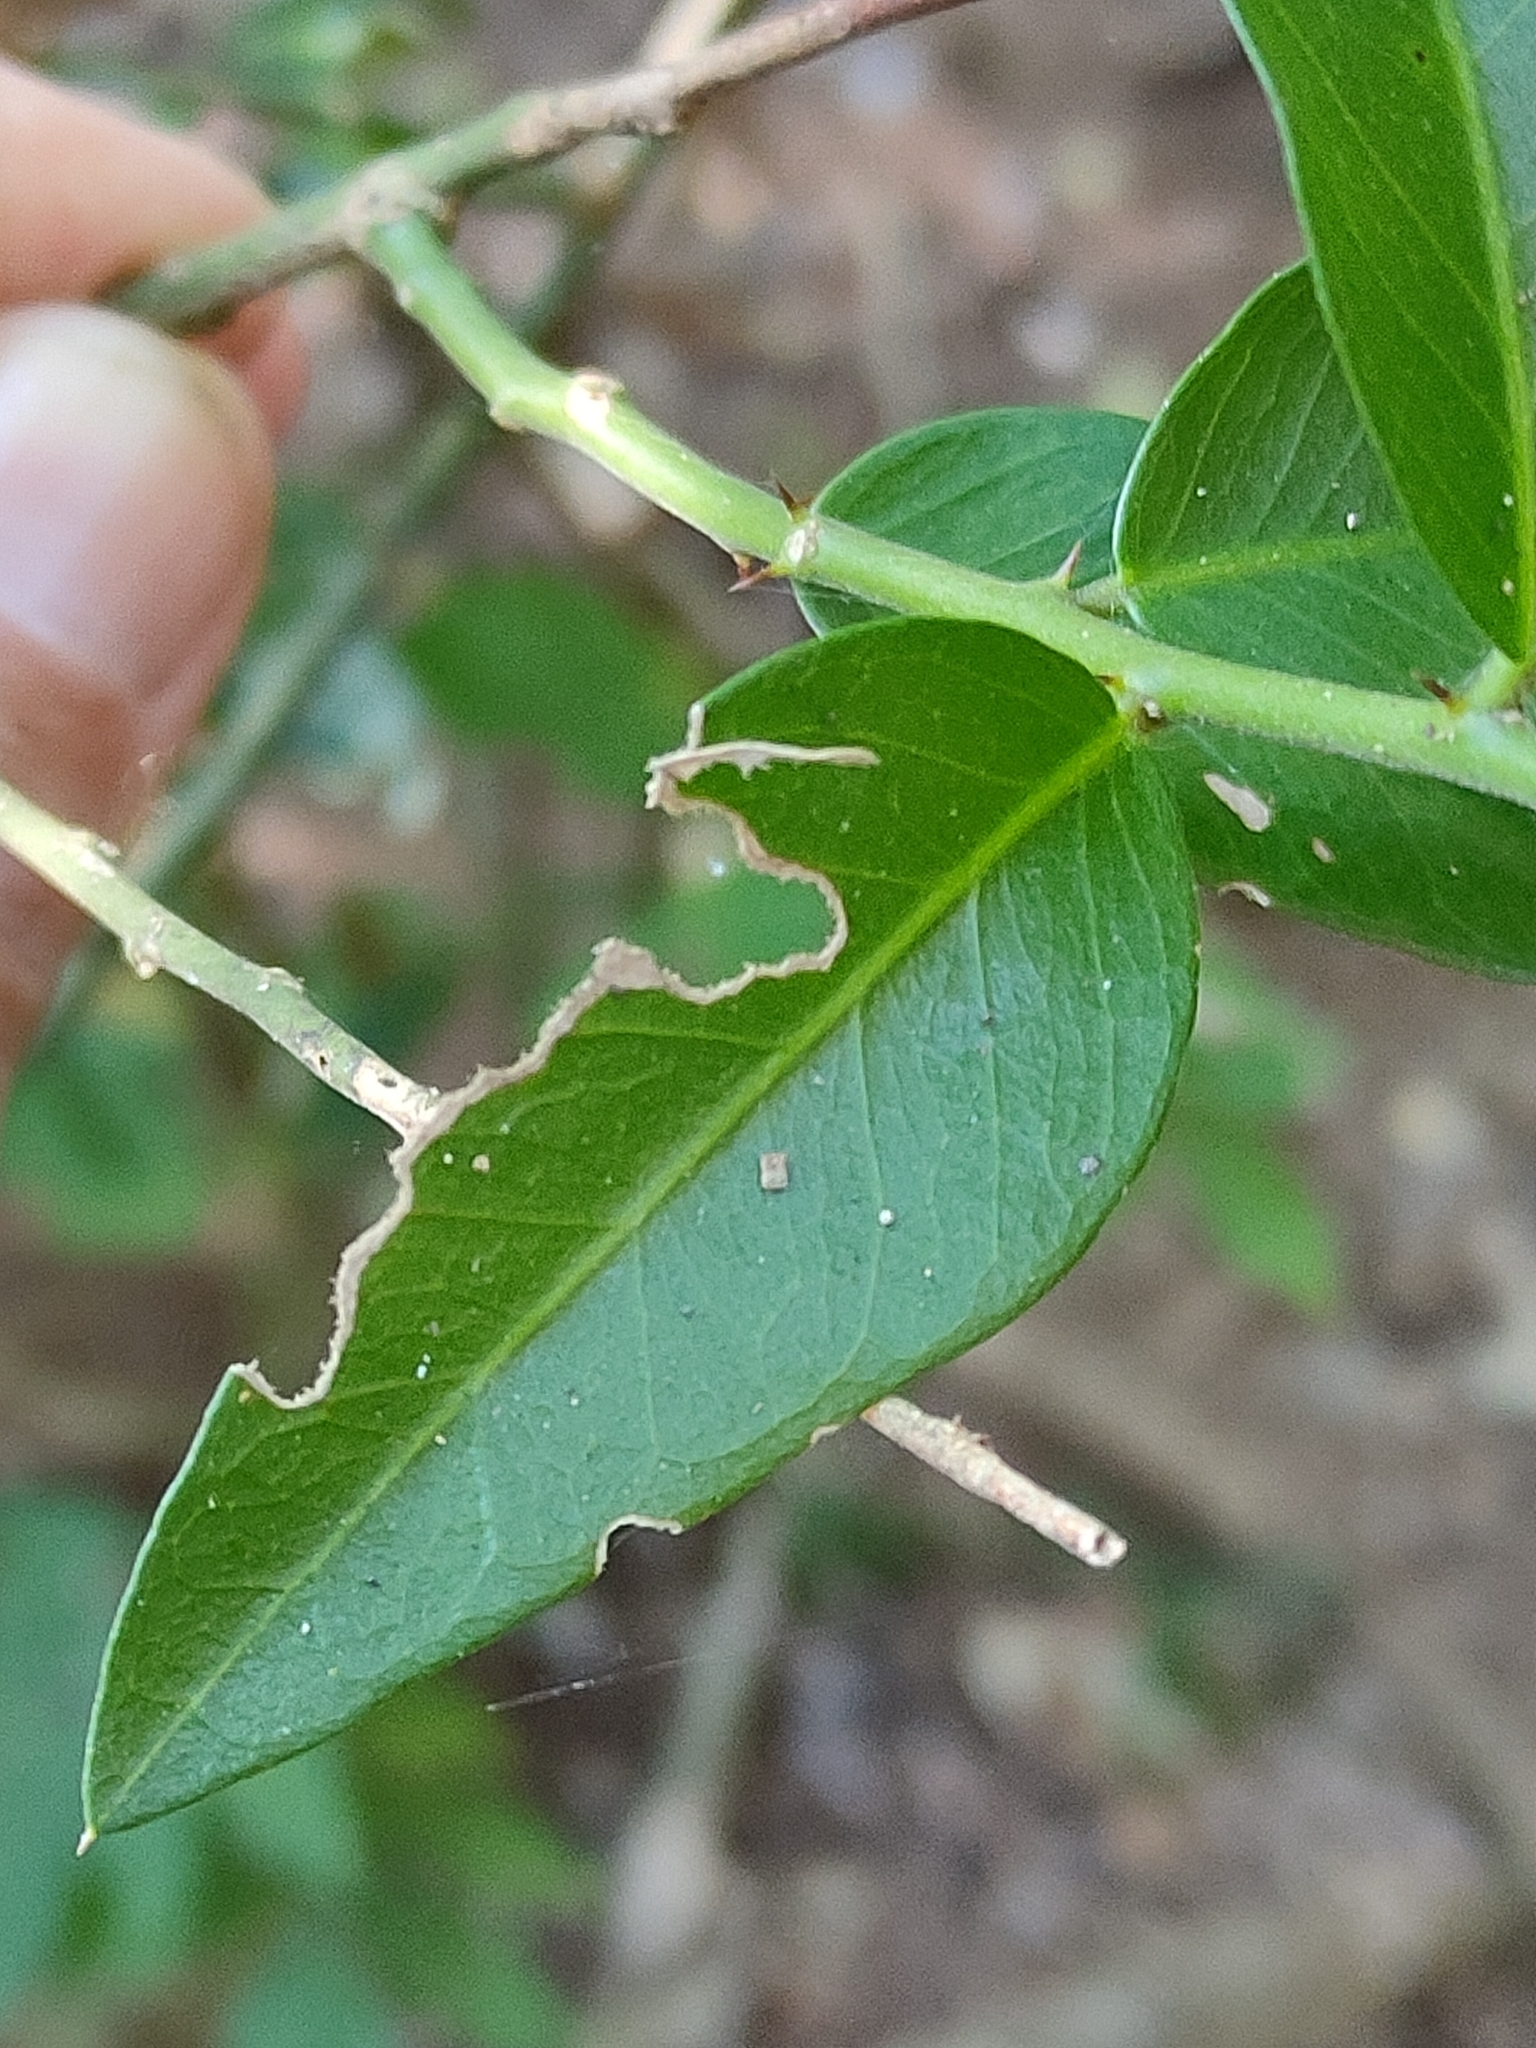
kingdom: Plantae
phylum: Tracheophyta
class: Magnoliopsida
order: Brassicales
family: Capparaceae
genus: Capparis
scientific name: Capparis arborea
